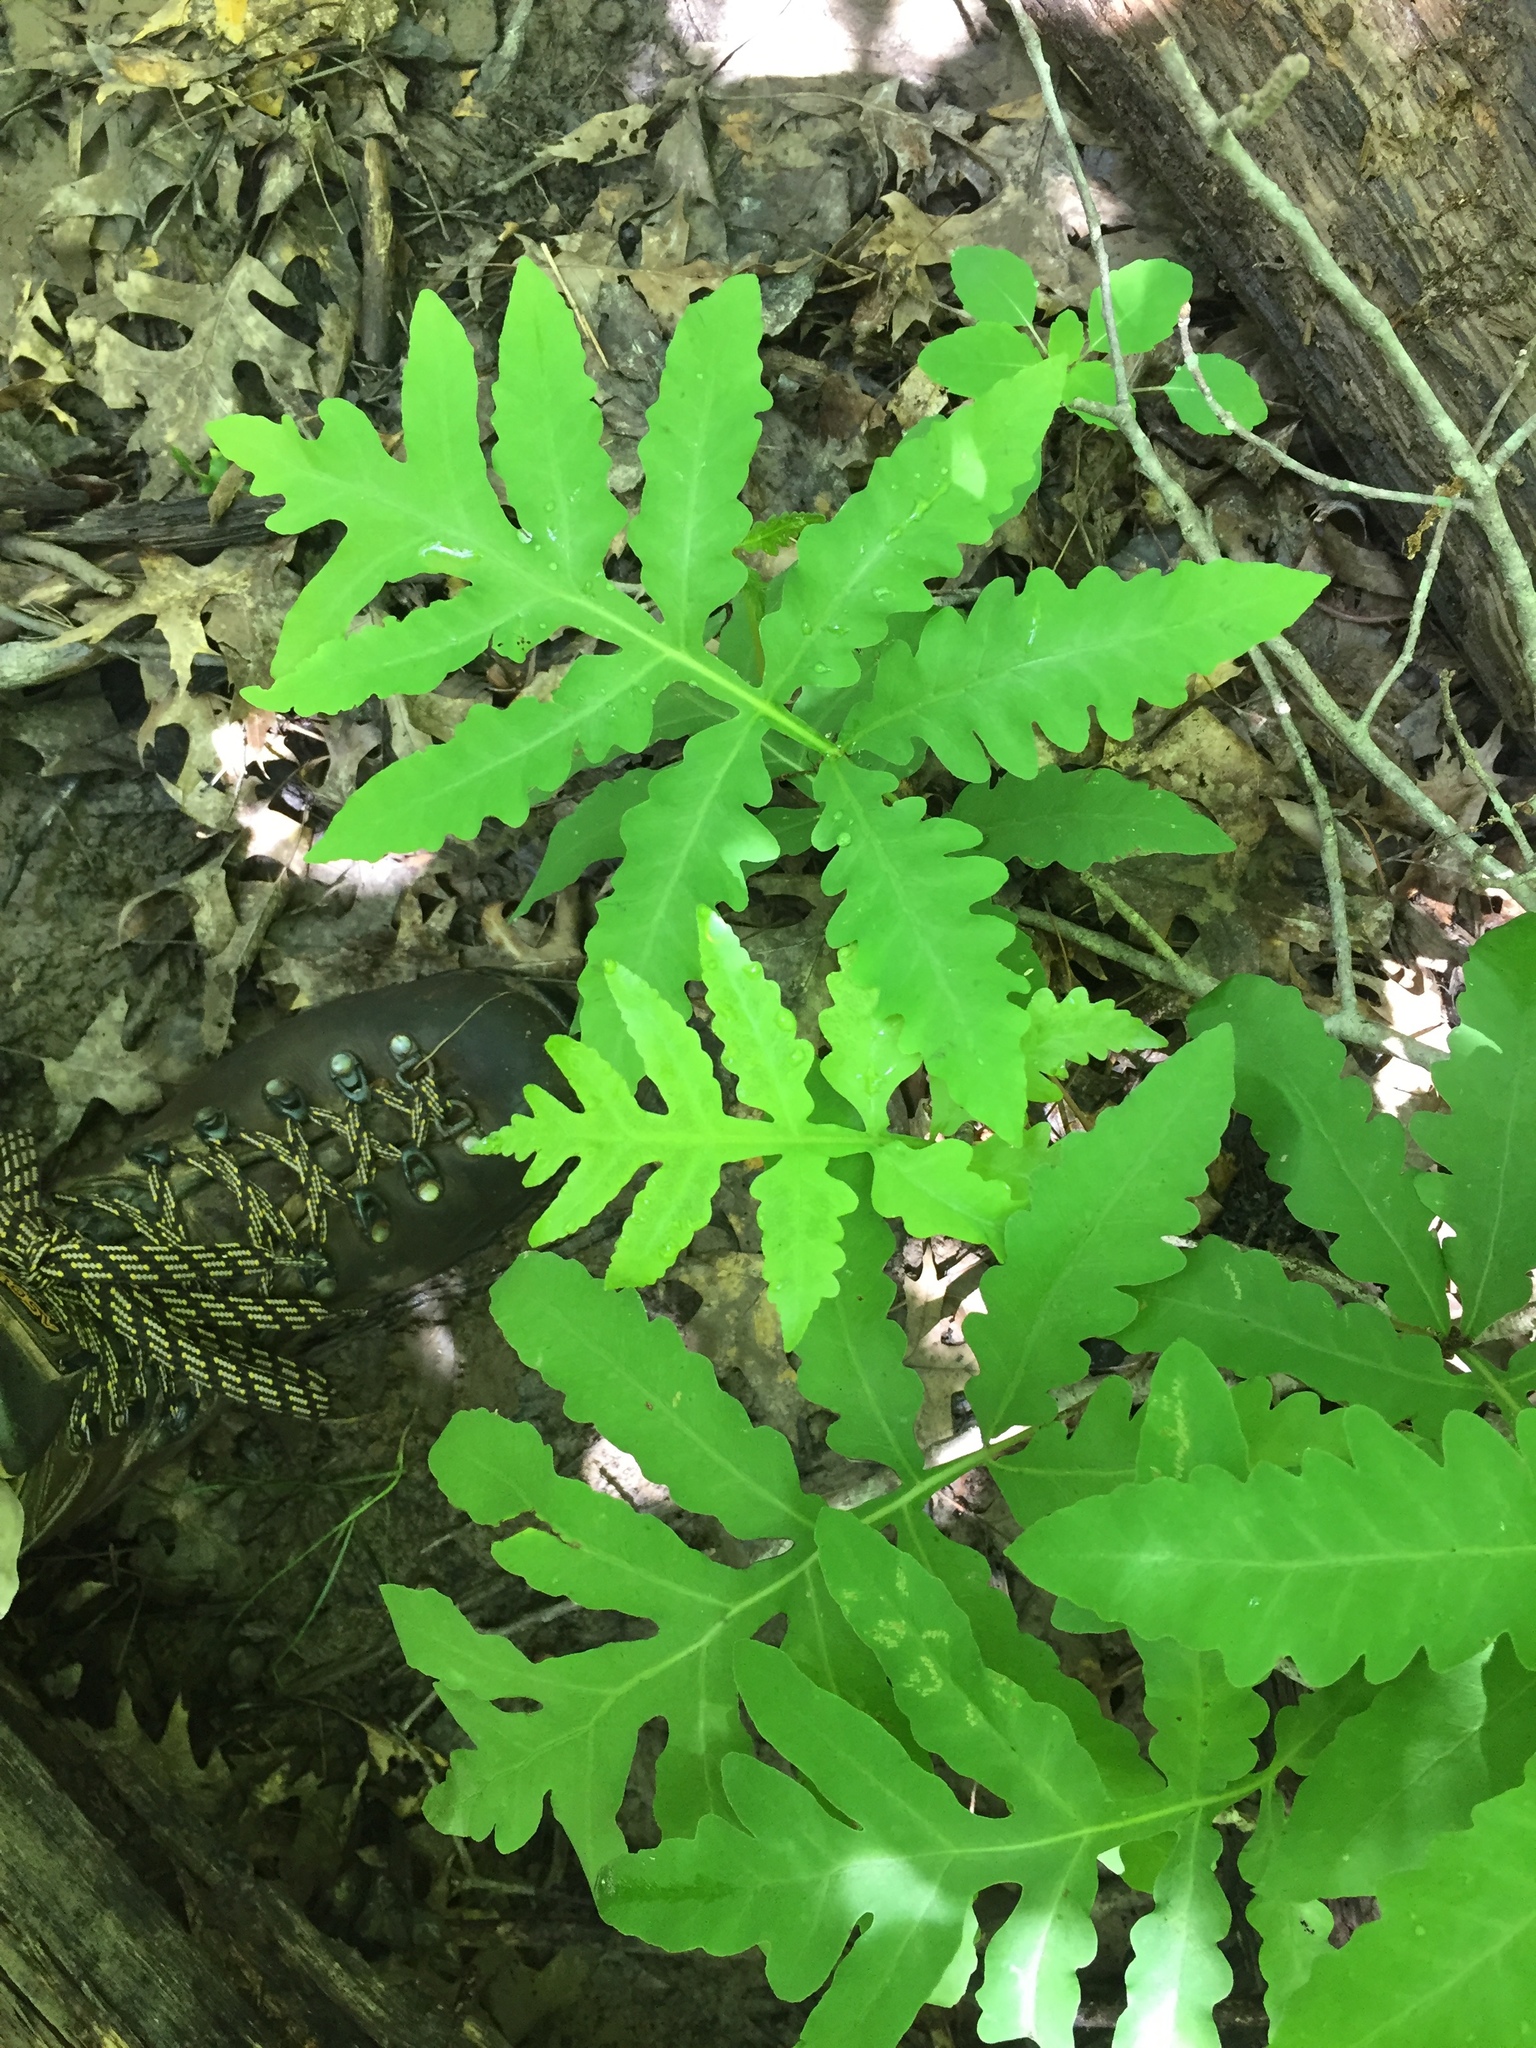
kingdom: Plantae
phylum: Tracheophyta
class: Polypodiopsida
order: Polypodiales
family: Onocleaceae
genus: Onoclea
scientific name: Onoclea sensibilis
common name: Sensitive fern
